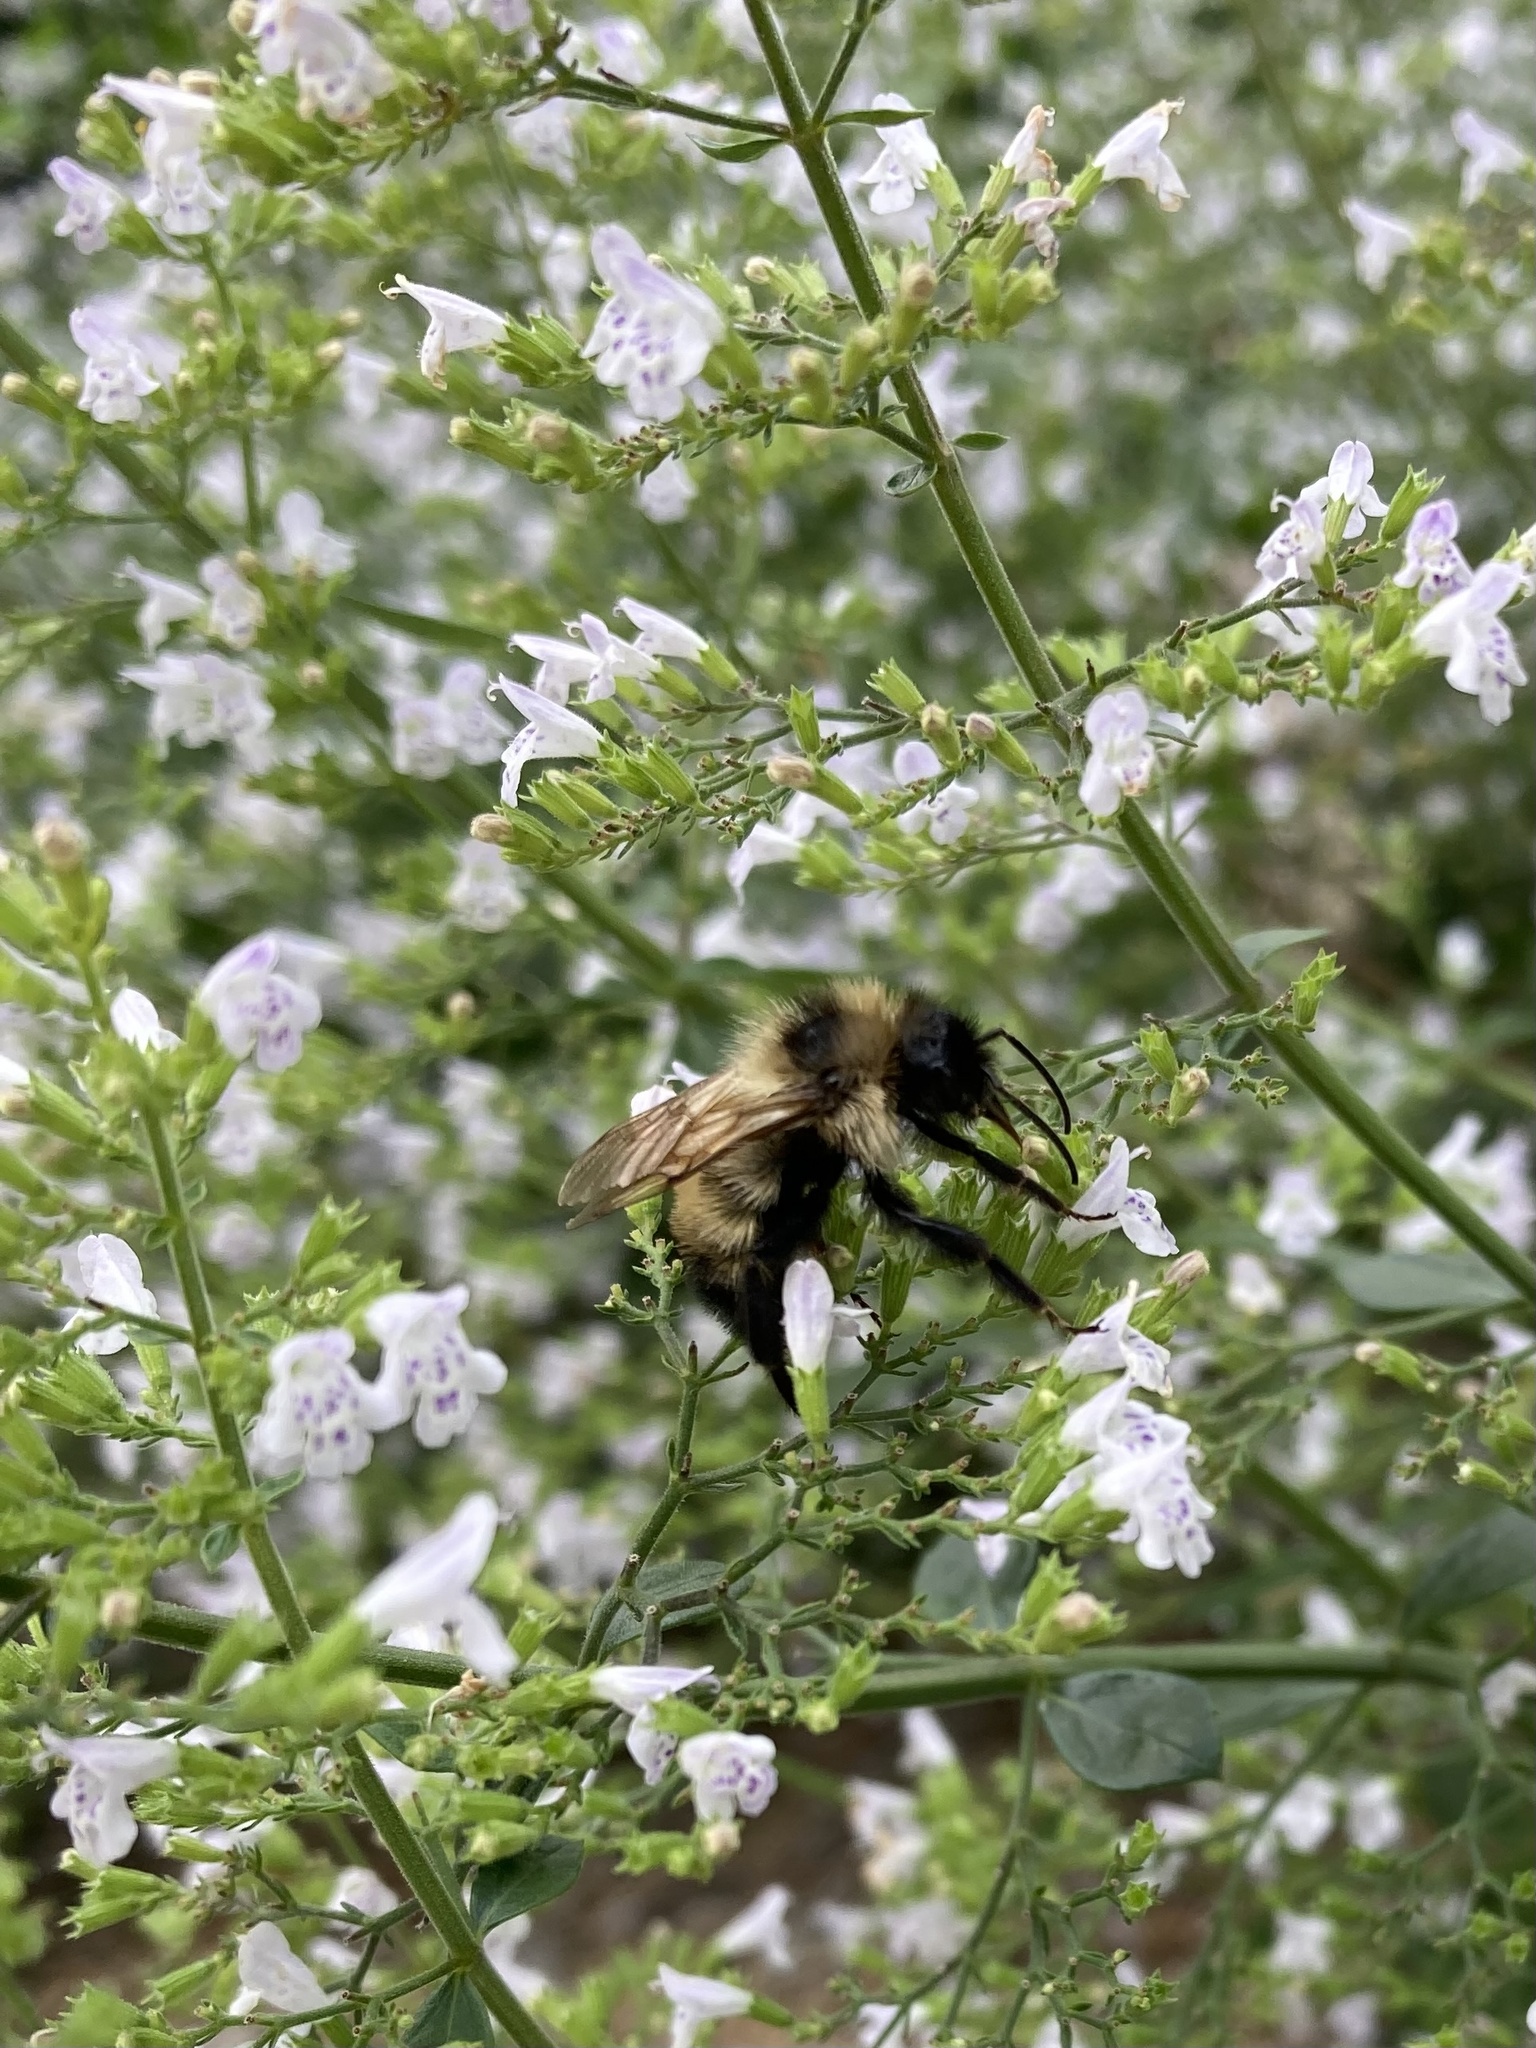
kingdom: Animalia
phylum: Arthropoda
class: Insecta
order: Hymenoptera
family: Apidae
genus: Bombus
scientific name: Bombus citrinus
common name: Lemon cuckoo bumble bee
